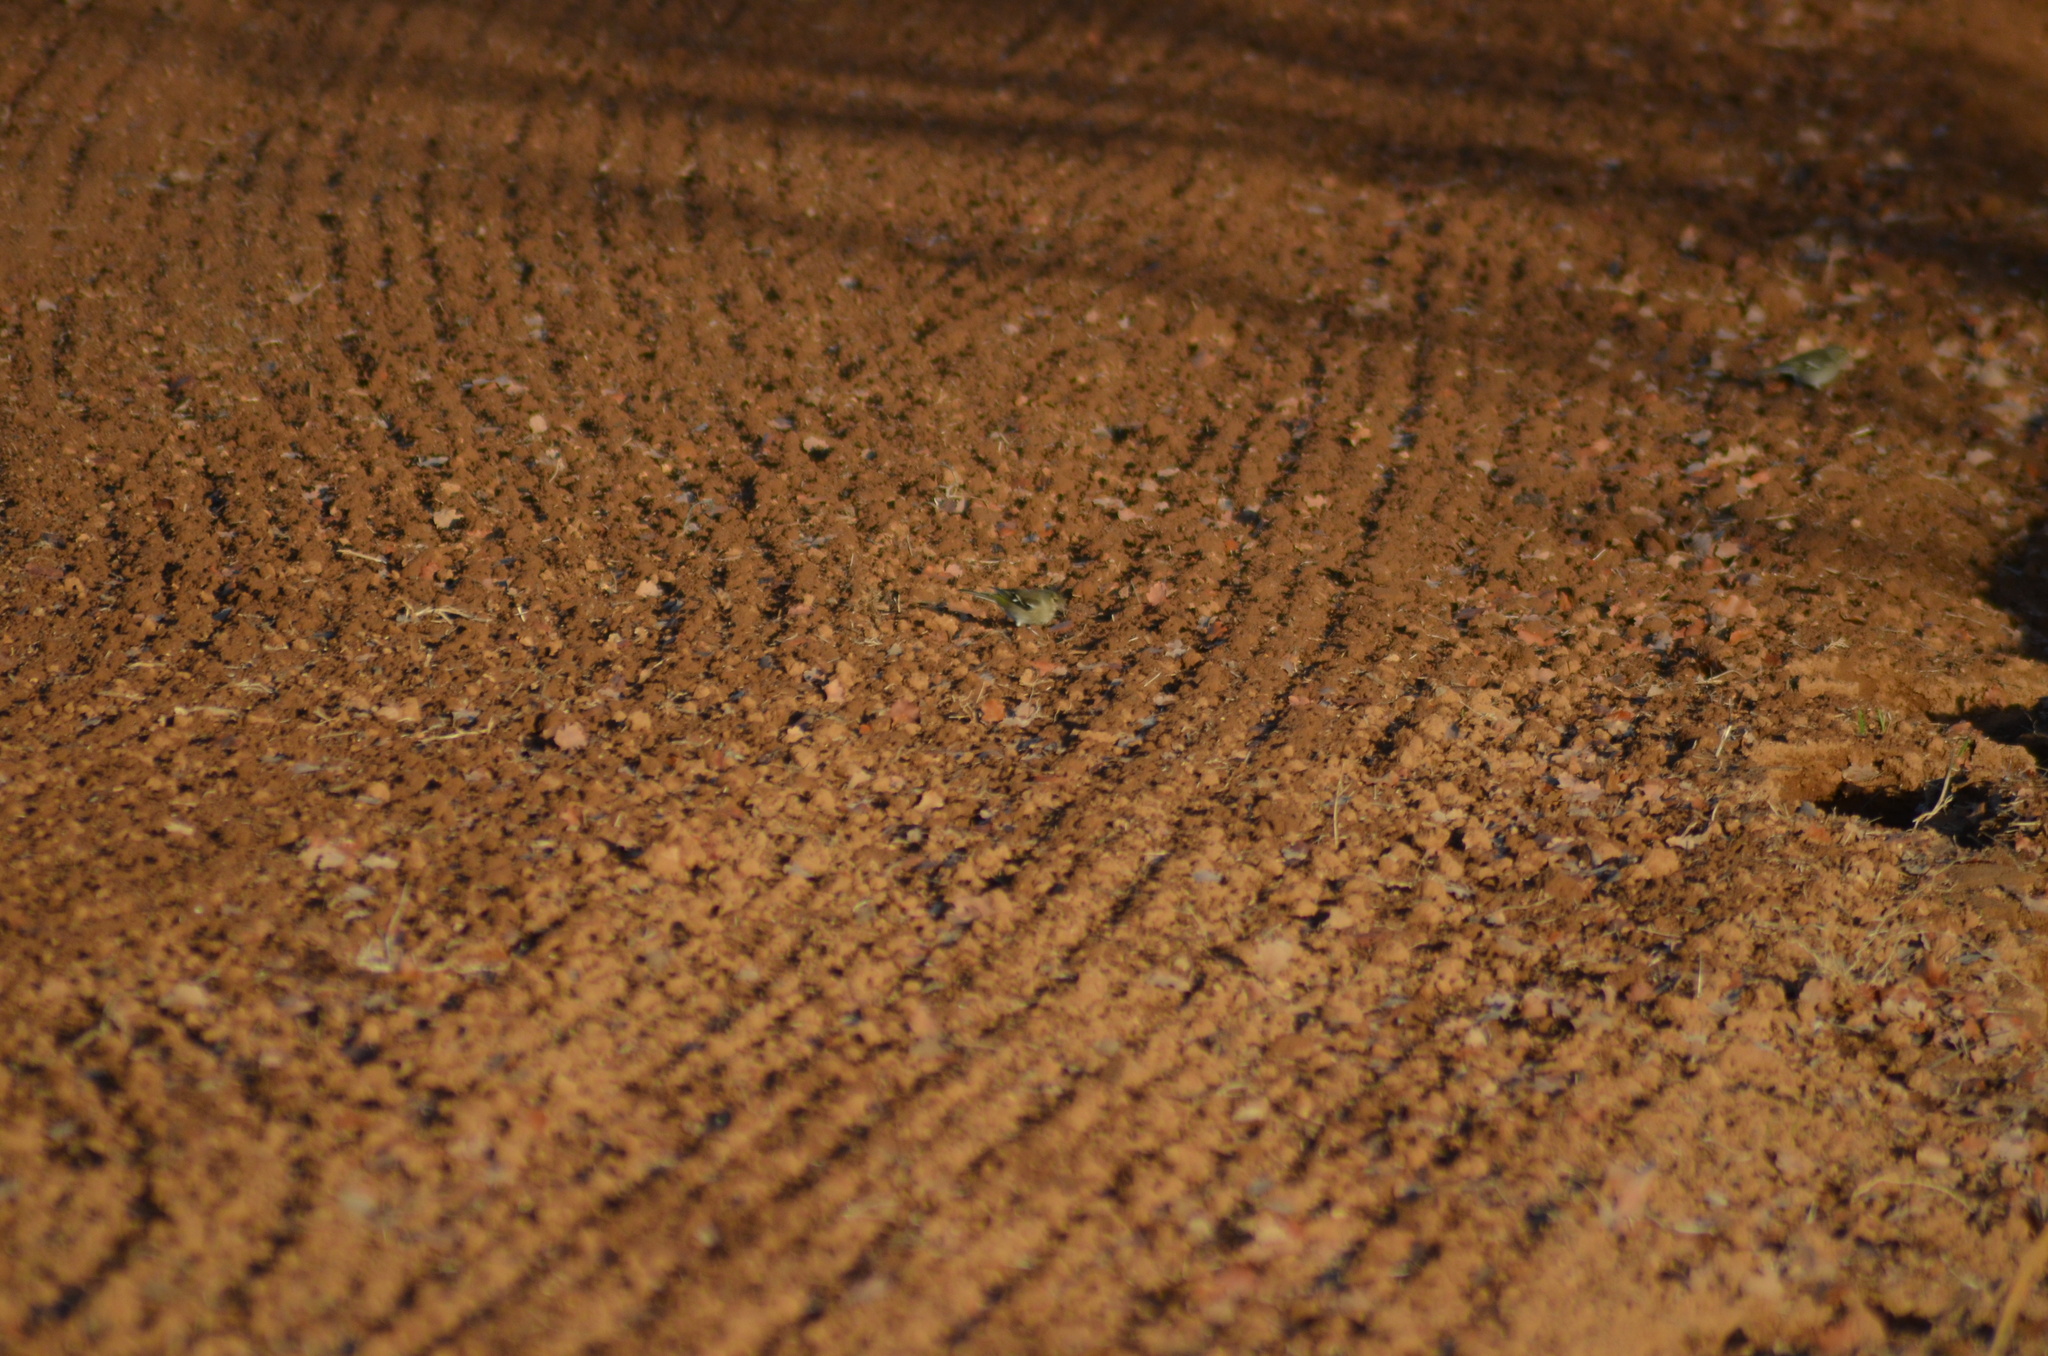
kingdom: Animalia
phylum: Chordata
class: Aves
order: Passeriformes
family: Fringillidae
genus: Fringilla
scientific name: Fringilla coelebs
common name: Common chaffinch
